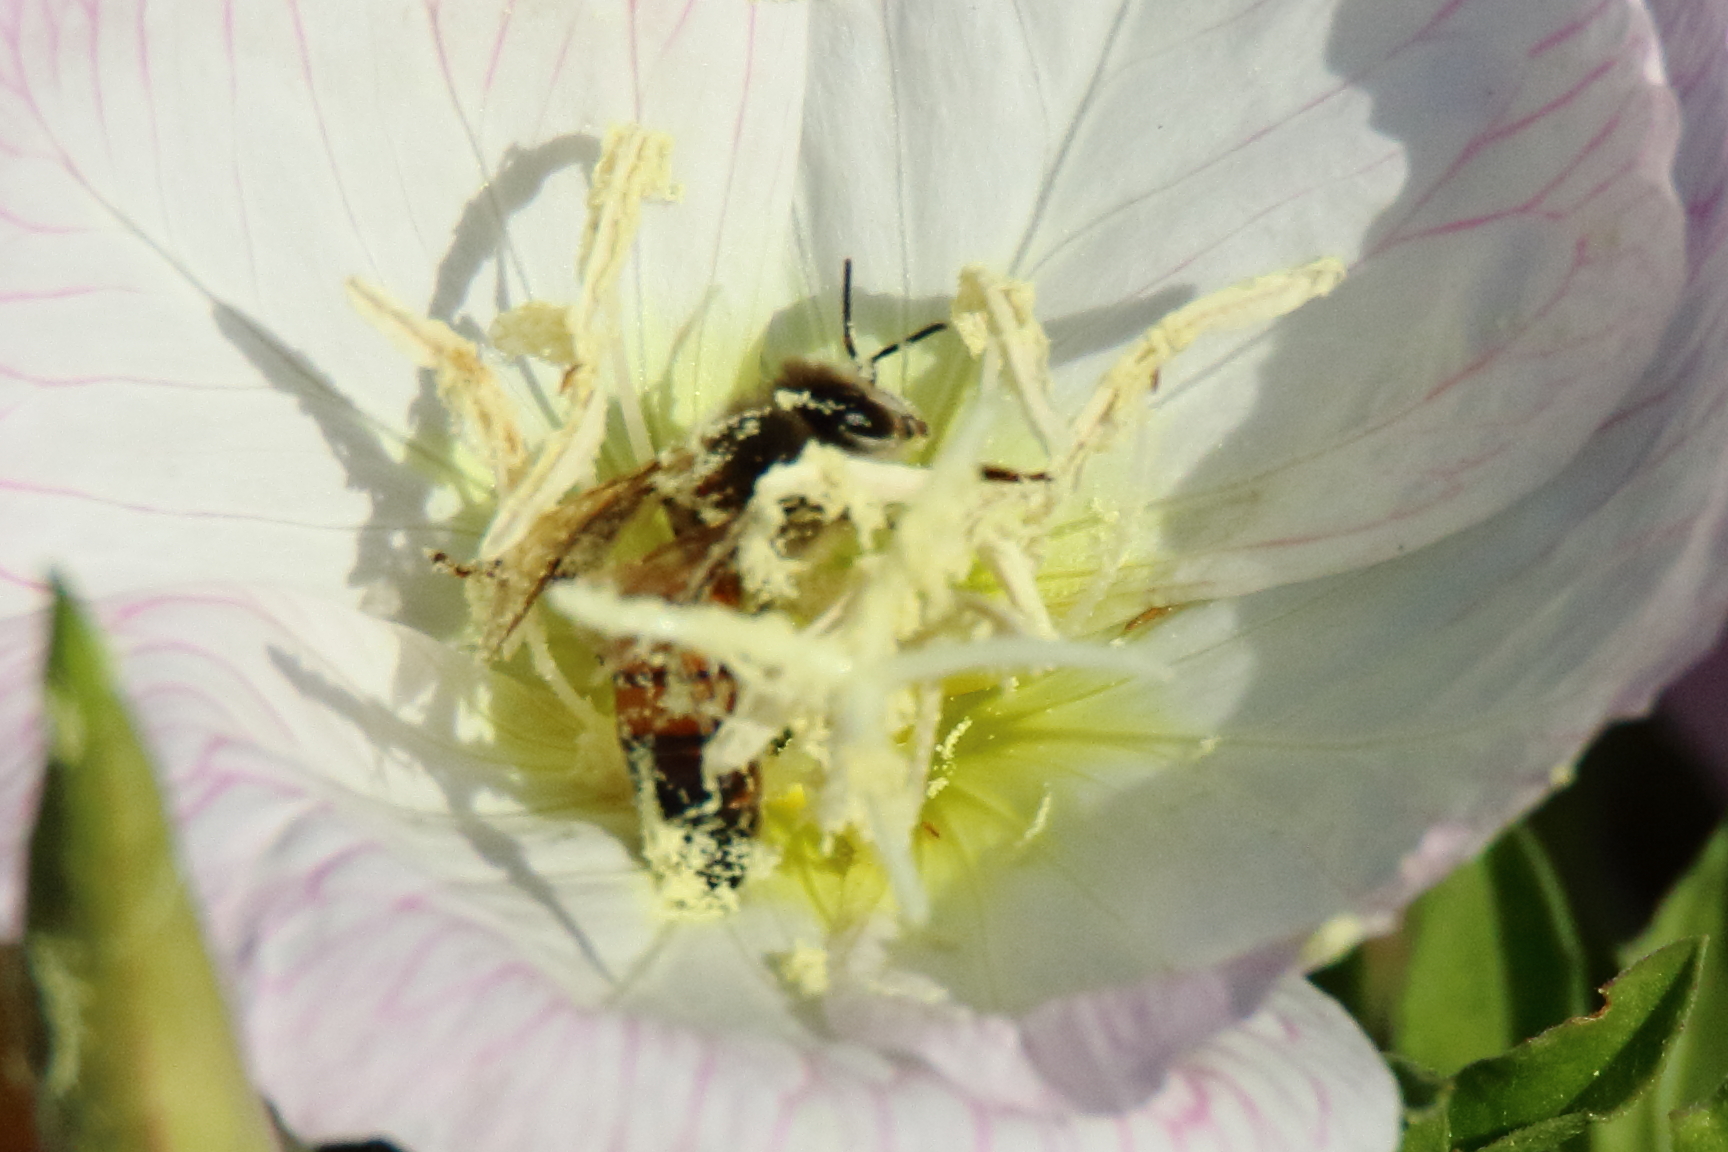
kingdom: Animalia
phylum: Arthropoda
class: Insecta
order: Hymenoptera
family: Apidae
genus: Apis
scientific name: Apis mellifera
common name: Honey bee
